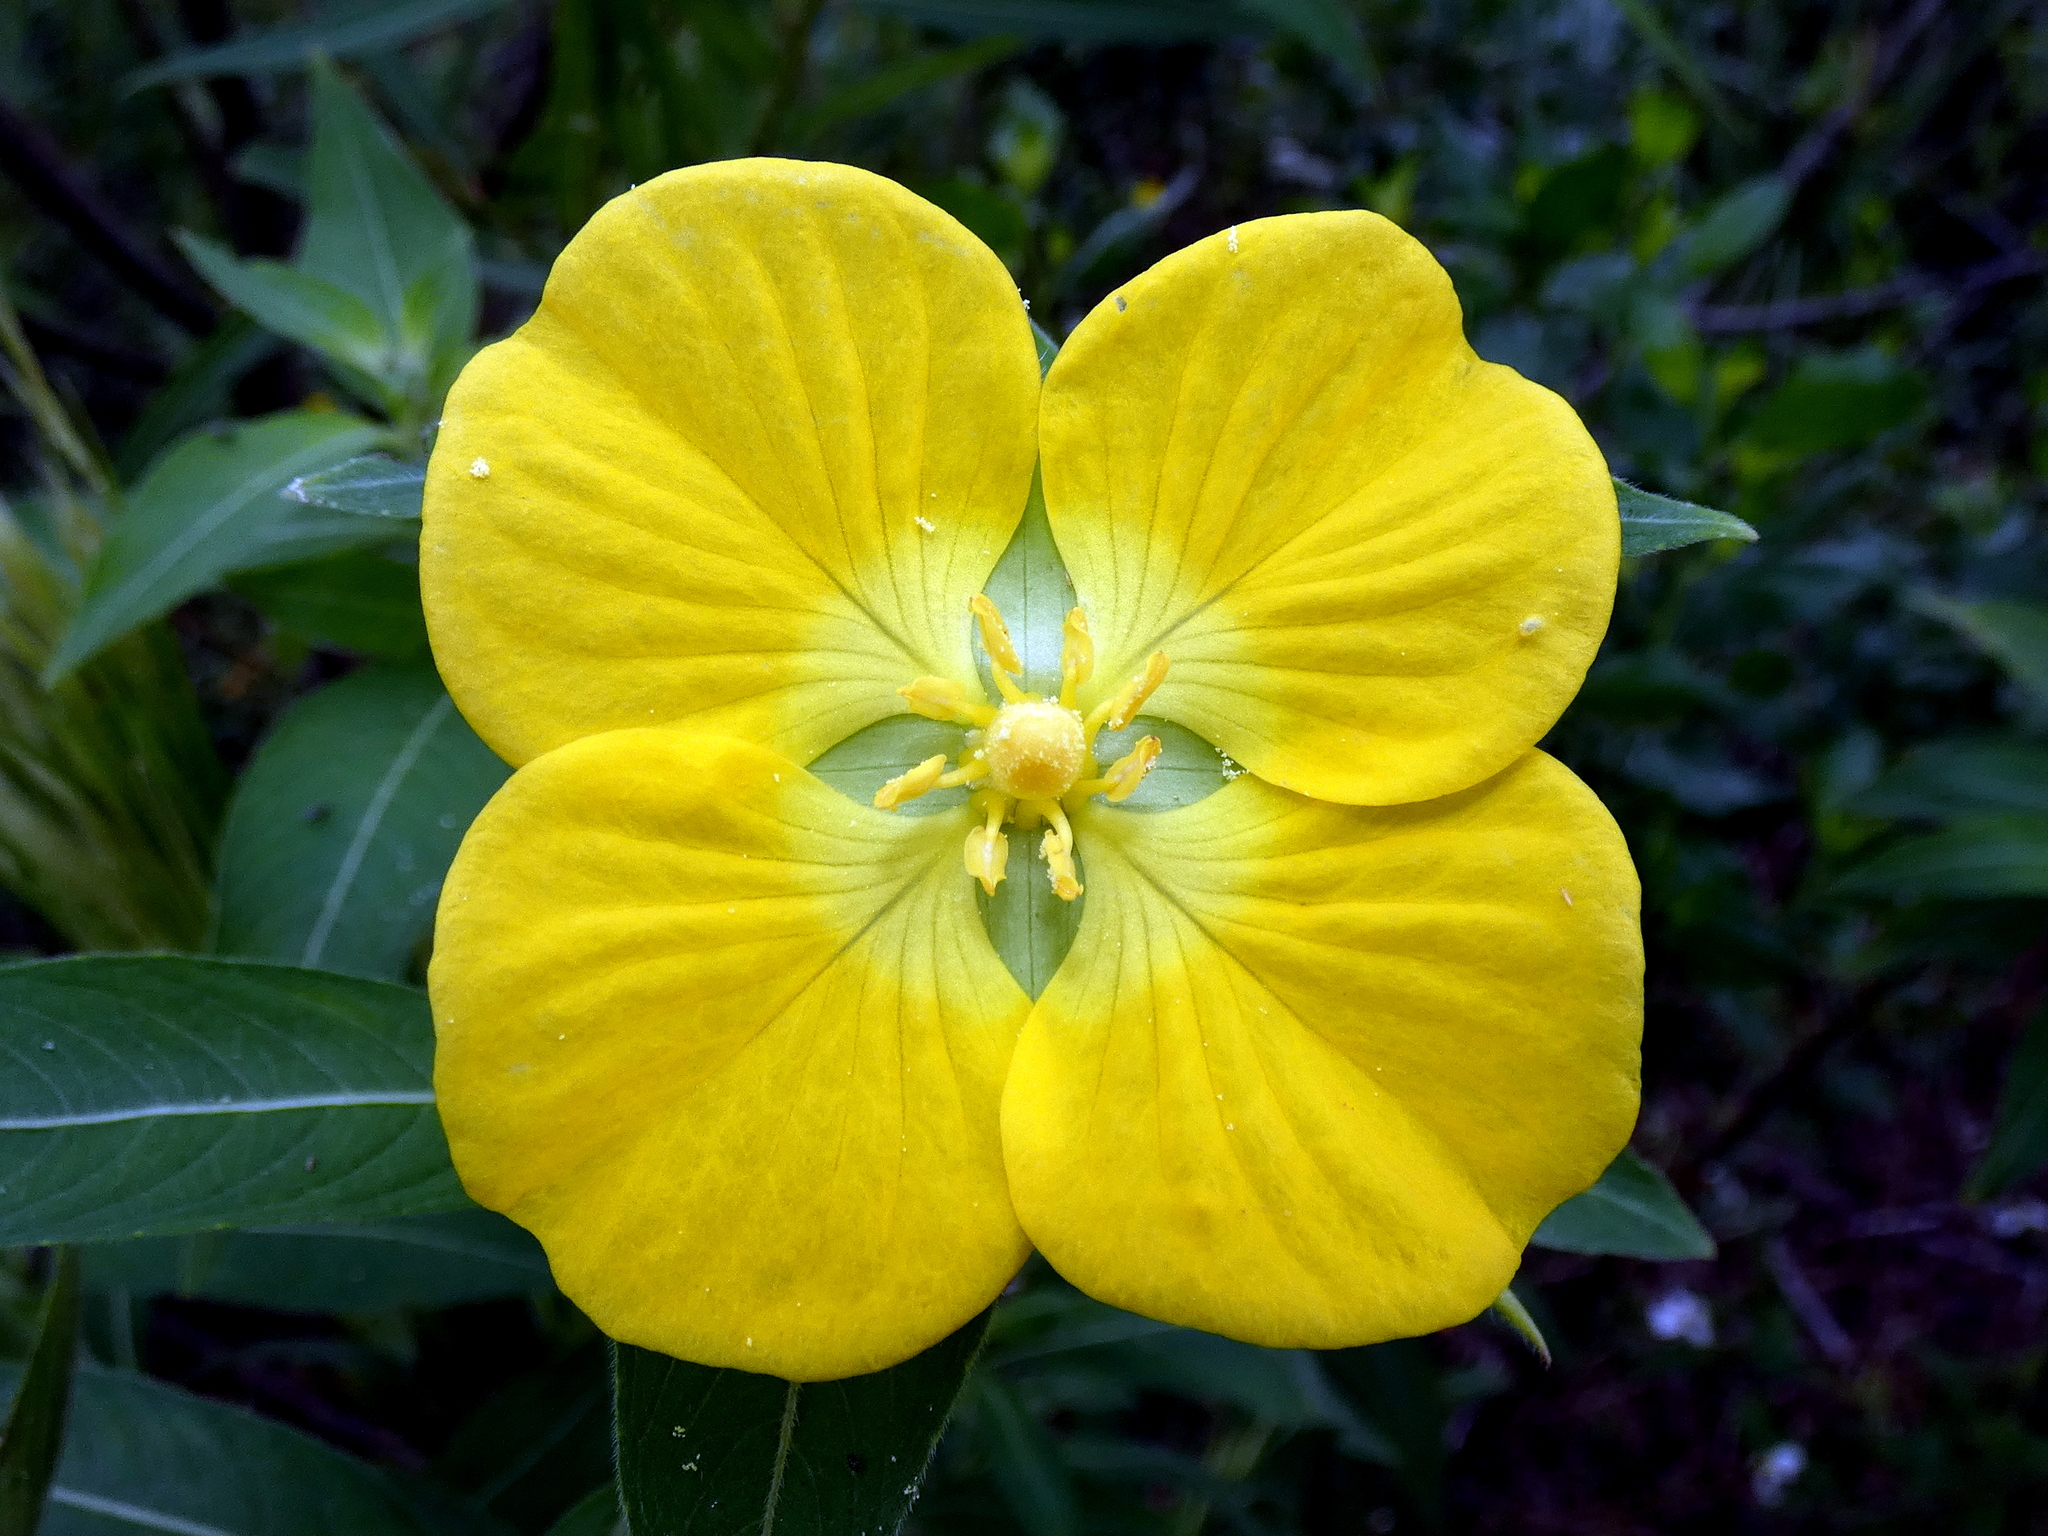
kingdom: Plantae
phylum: Tracheophyta
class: Magnoliopsida
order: Myrtales
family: Onagraceae
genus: Ludwigia
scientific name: Ludwigia peruviana
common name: Peruvian primrose-willow
